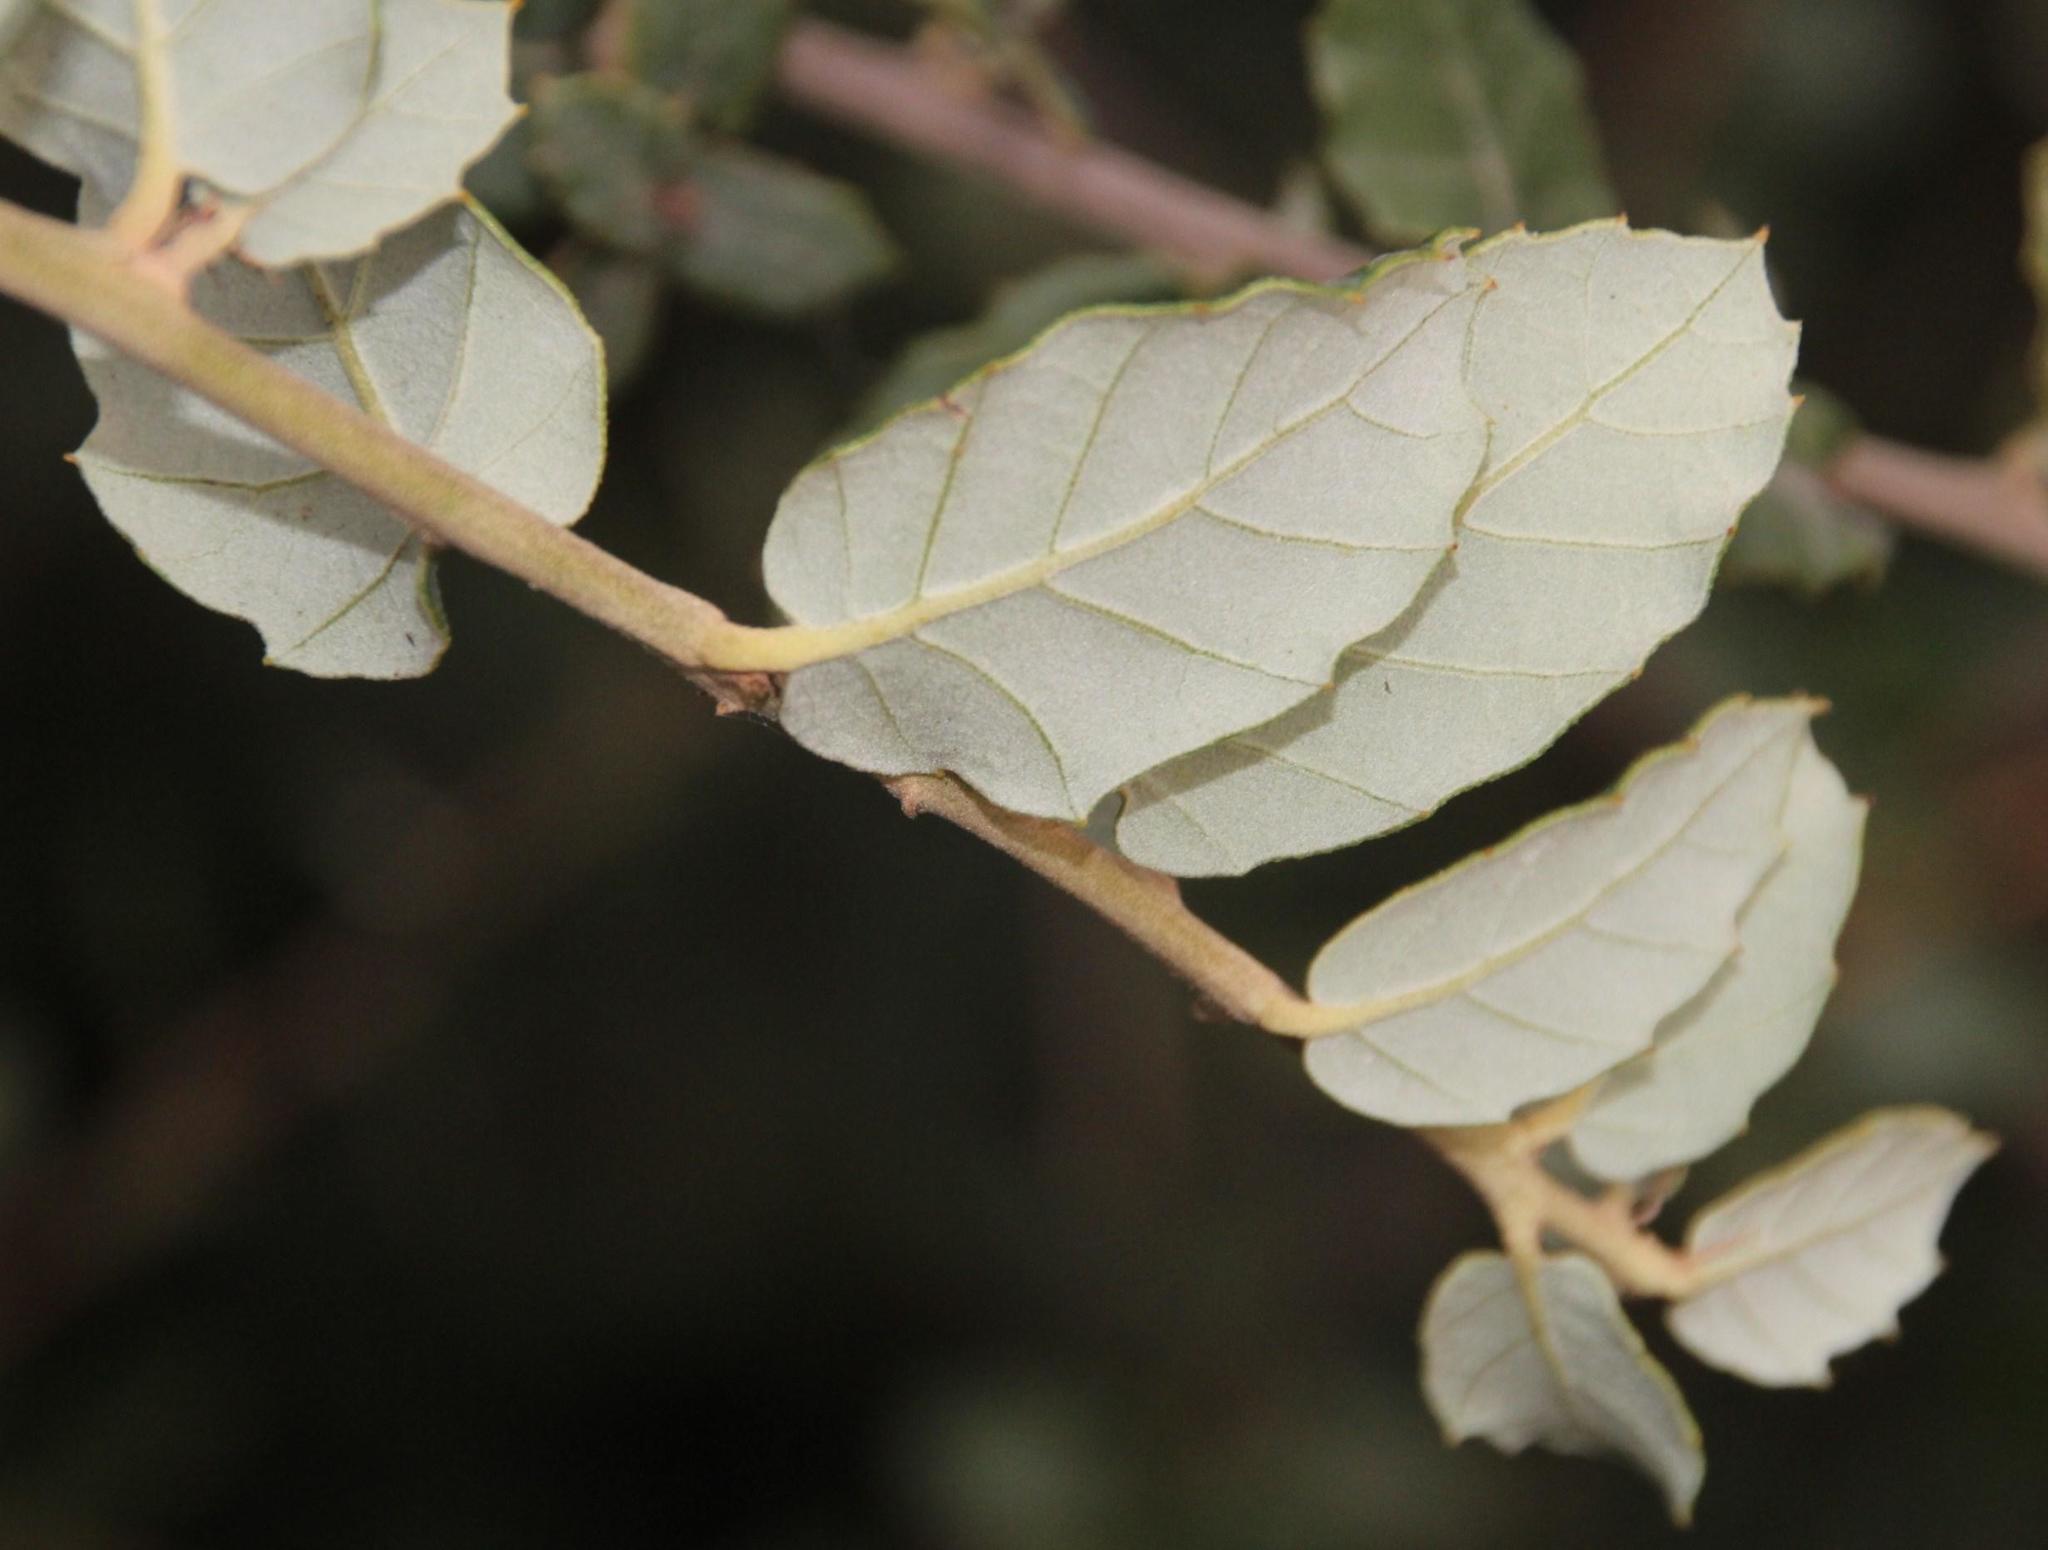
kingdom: Plantae
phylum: Tracheophyta
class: Magnoliopsida
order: Fagales
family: Fagaceae
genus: Quercus
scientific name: Quercus suber
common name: Cork oak
